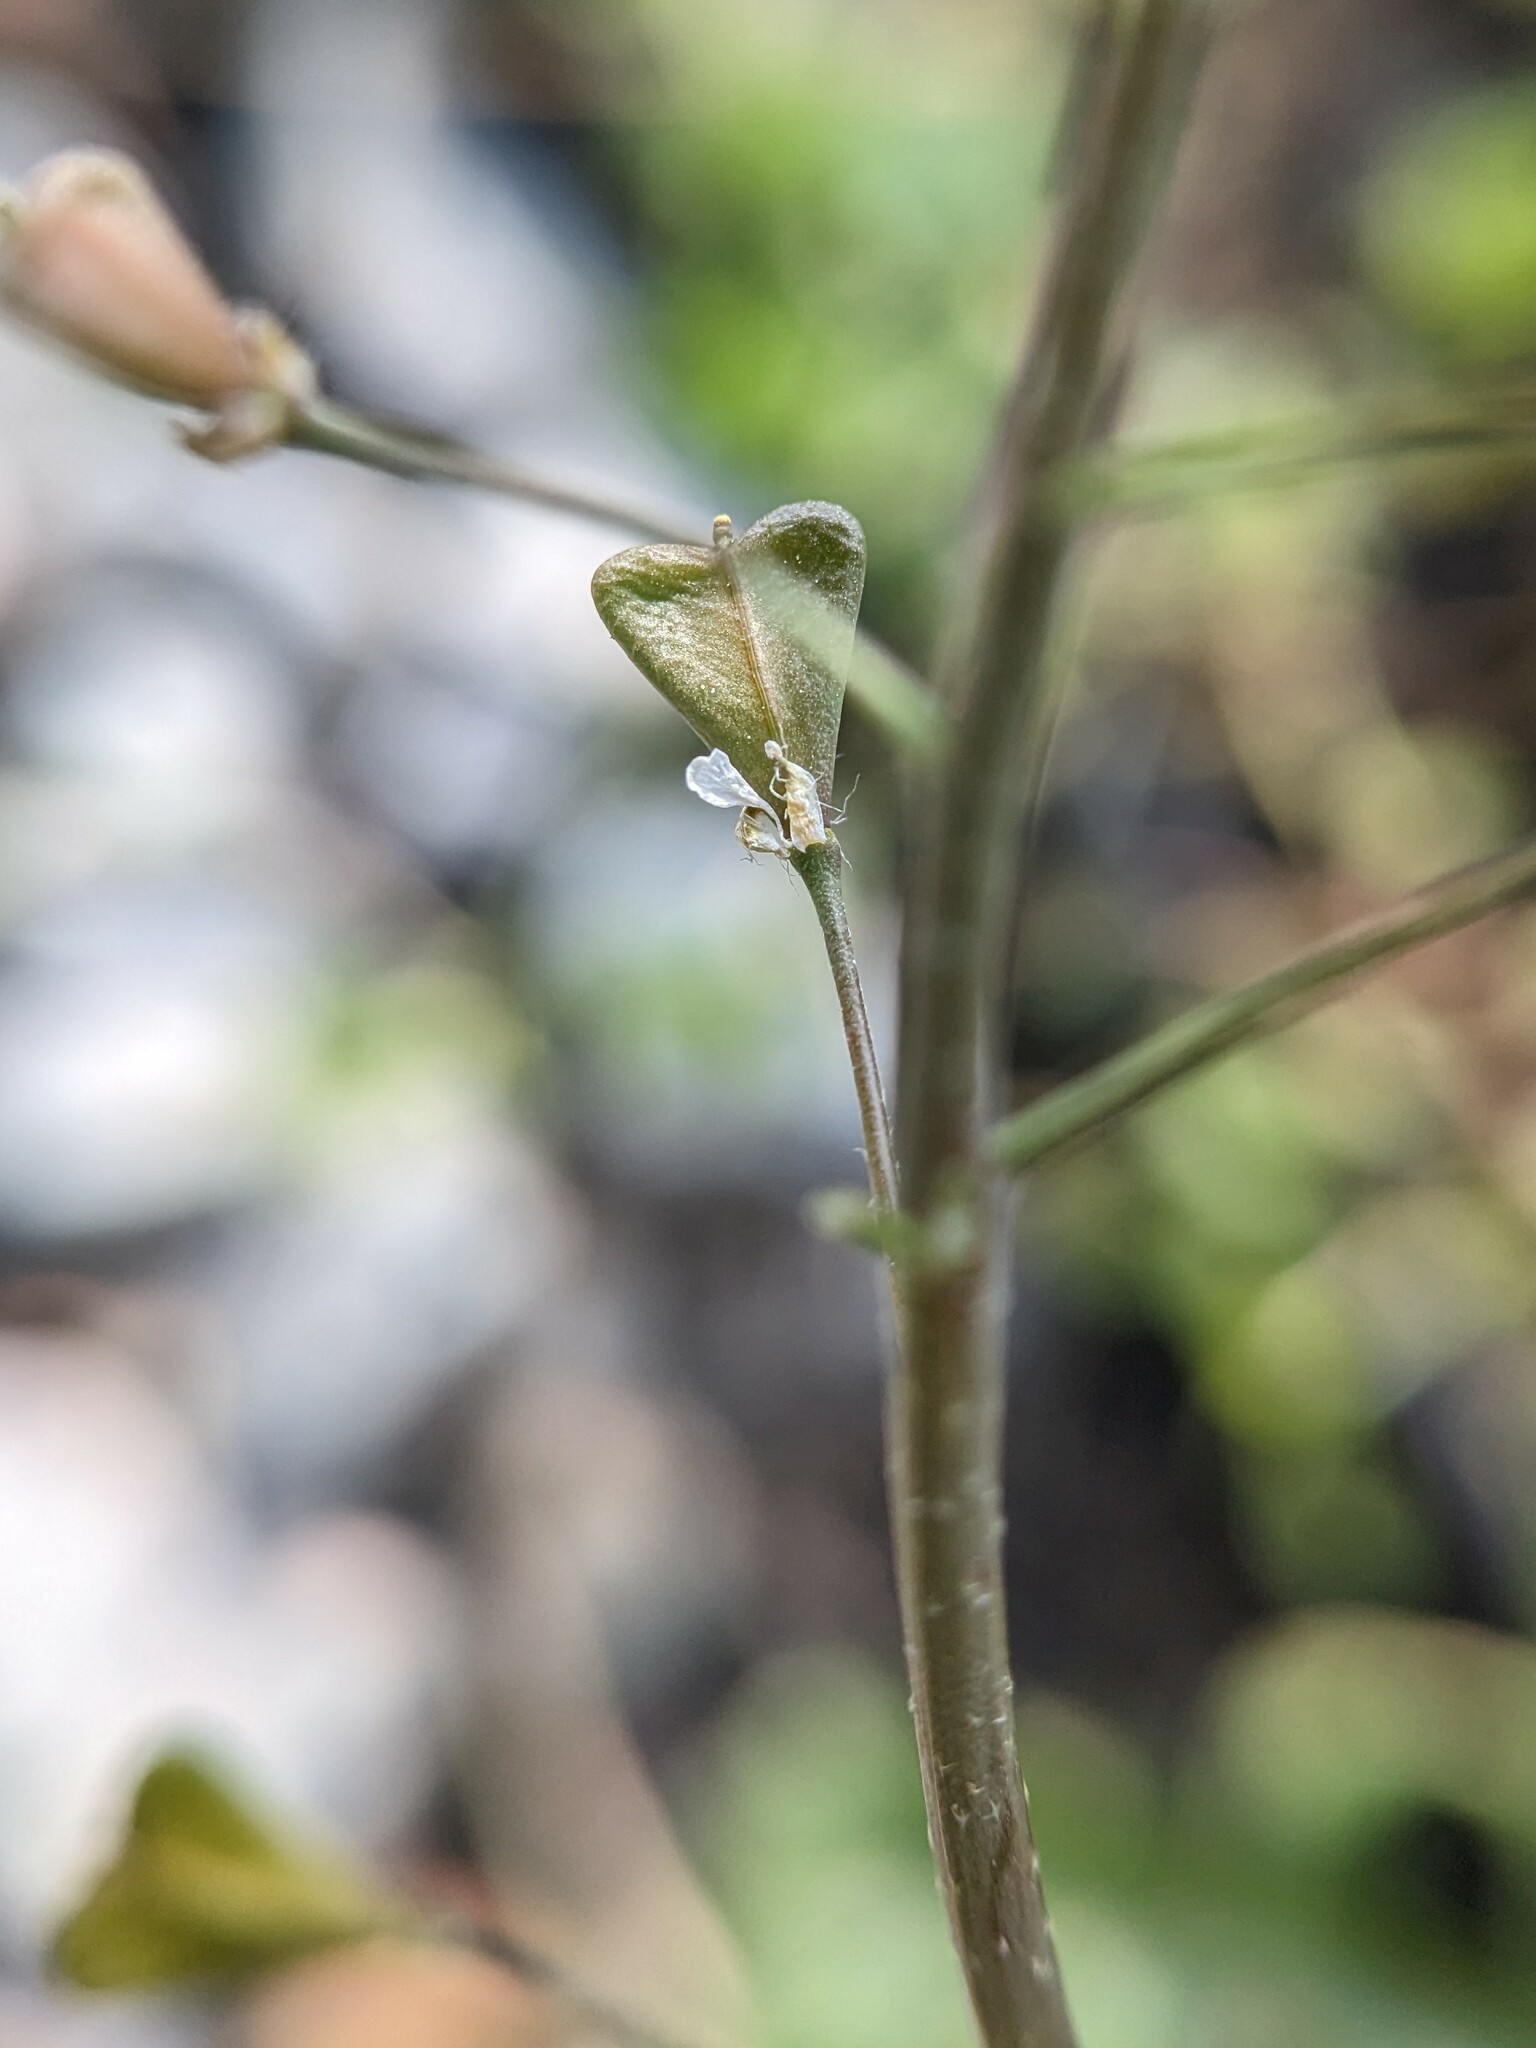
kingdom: Plantae
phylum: Tracheophyta
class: Magnoliopsida
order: Brassicales
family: Brassicaceae
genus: Capsella
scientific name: Capsella bursa-pastoris
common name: Shepherd's purse
